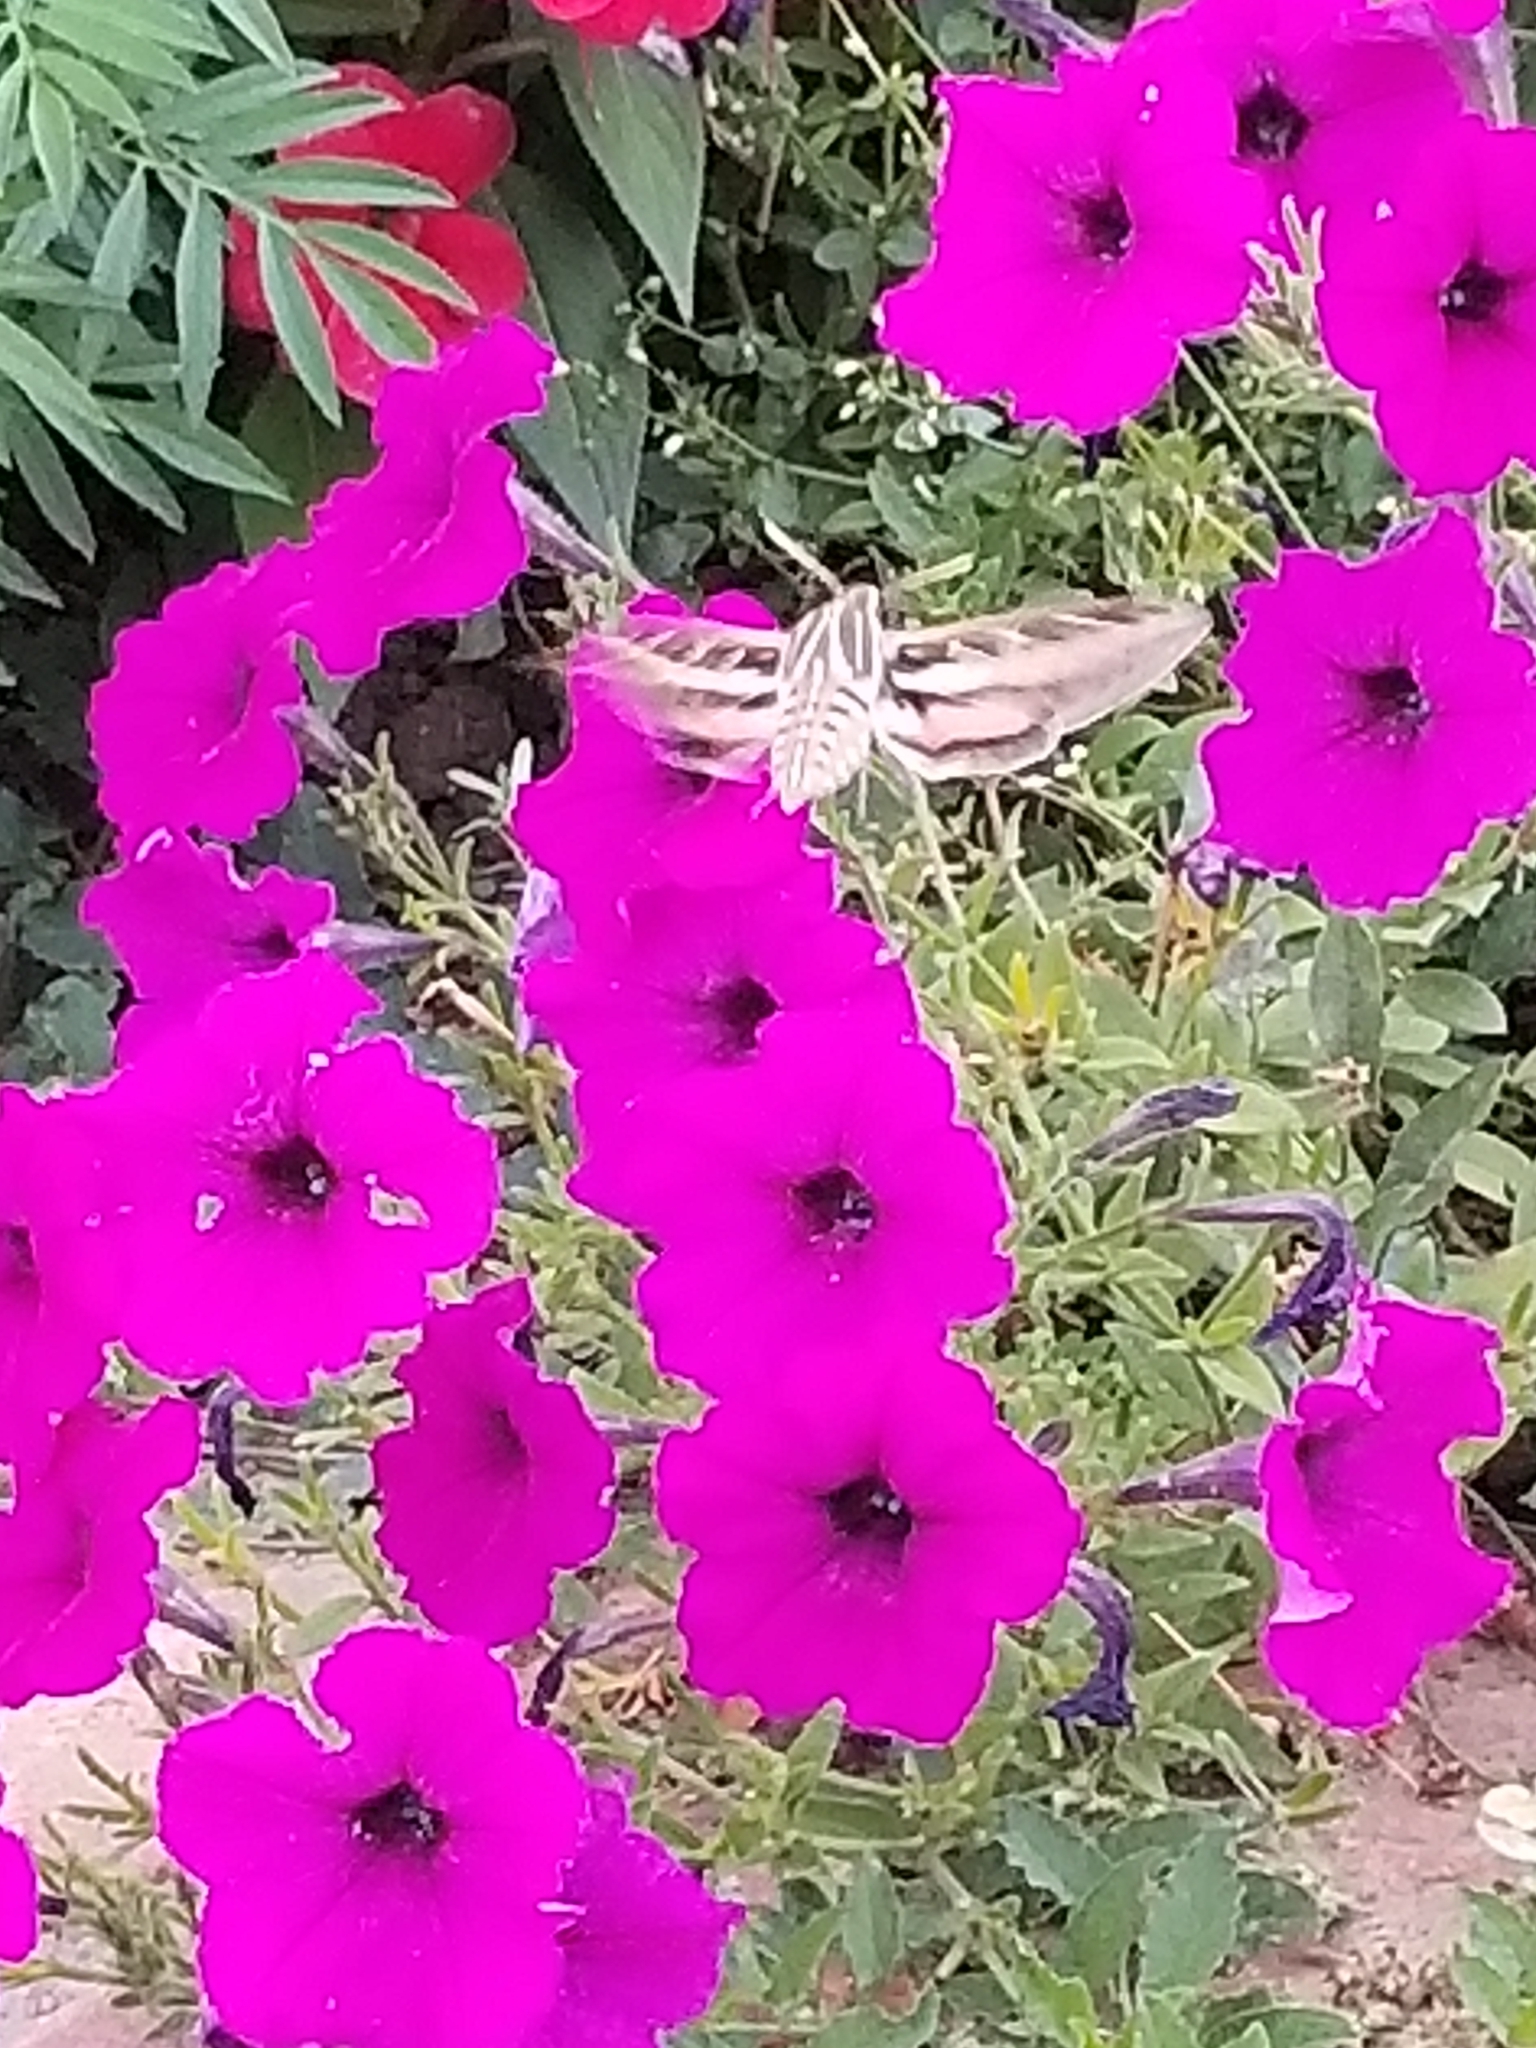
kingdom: Animalia
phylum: Arthropoda
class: Insecta
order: Lepidoptera
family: Sphingidae
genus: Hyles
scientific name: Hyles lineata
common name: White-lined sphinx
